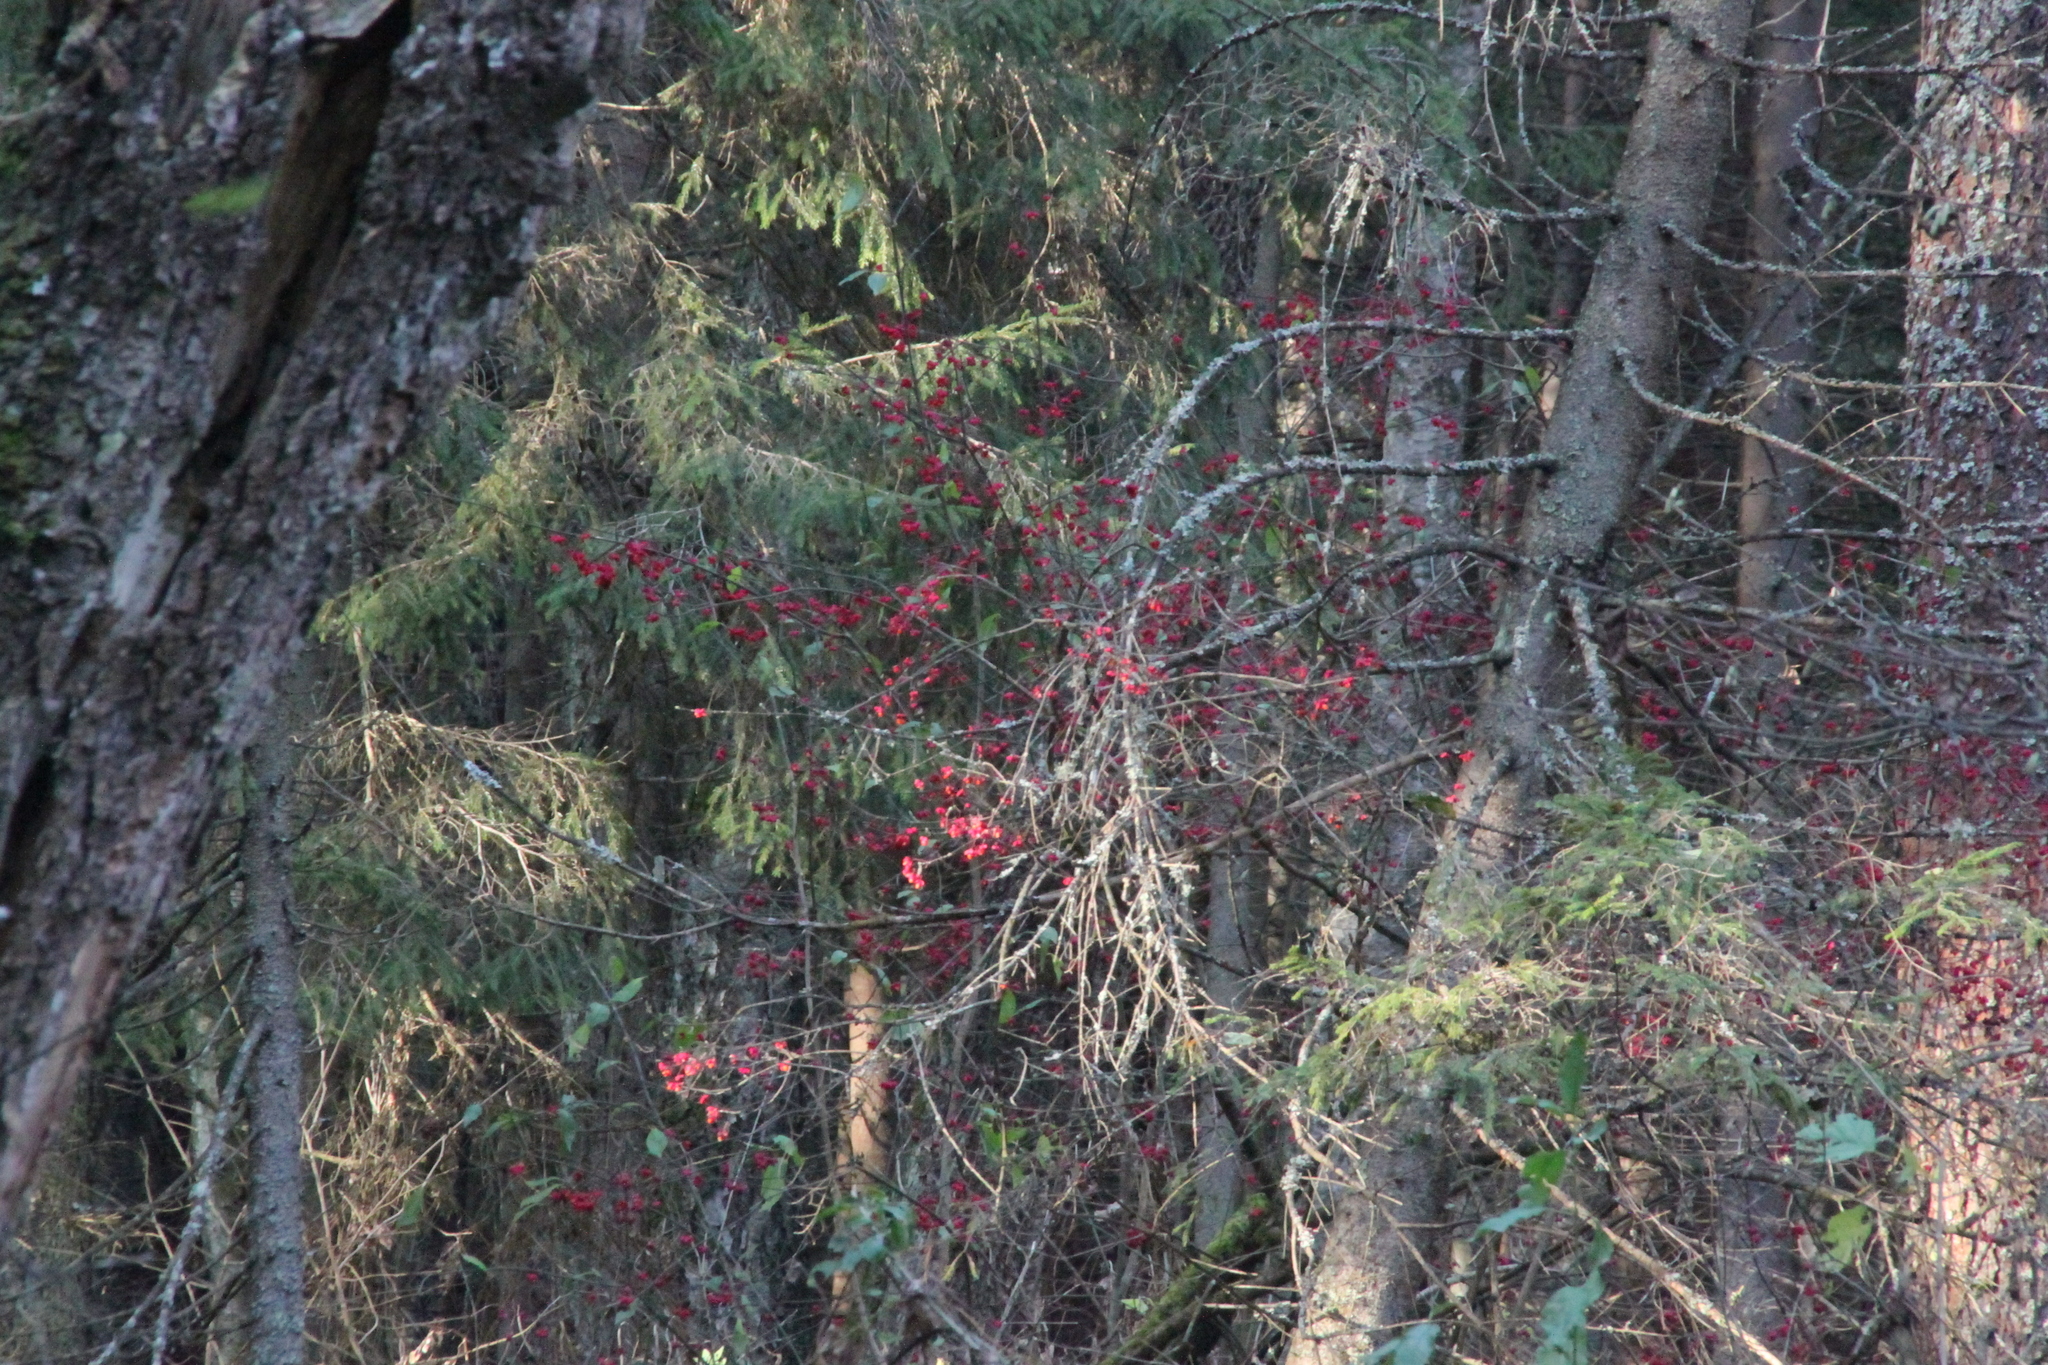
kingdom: Plantae
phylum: Tracheophyta
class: Magnoliopsida
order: Celastrales
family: Celastraceae
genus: Euonymus
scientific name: Euonymus verrucosus
